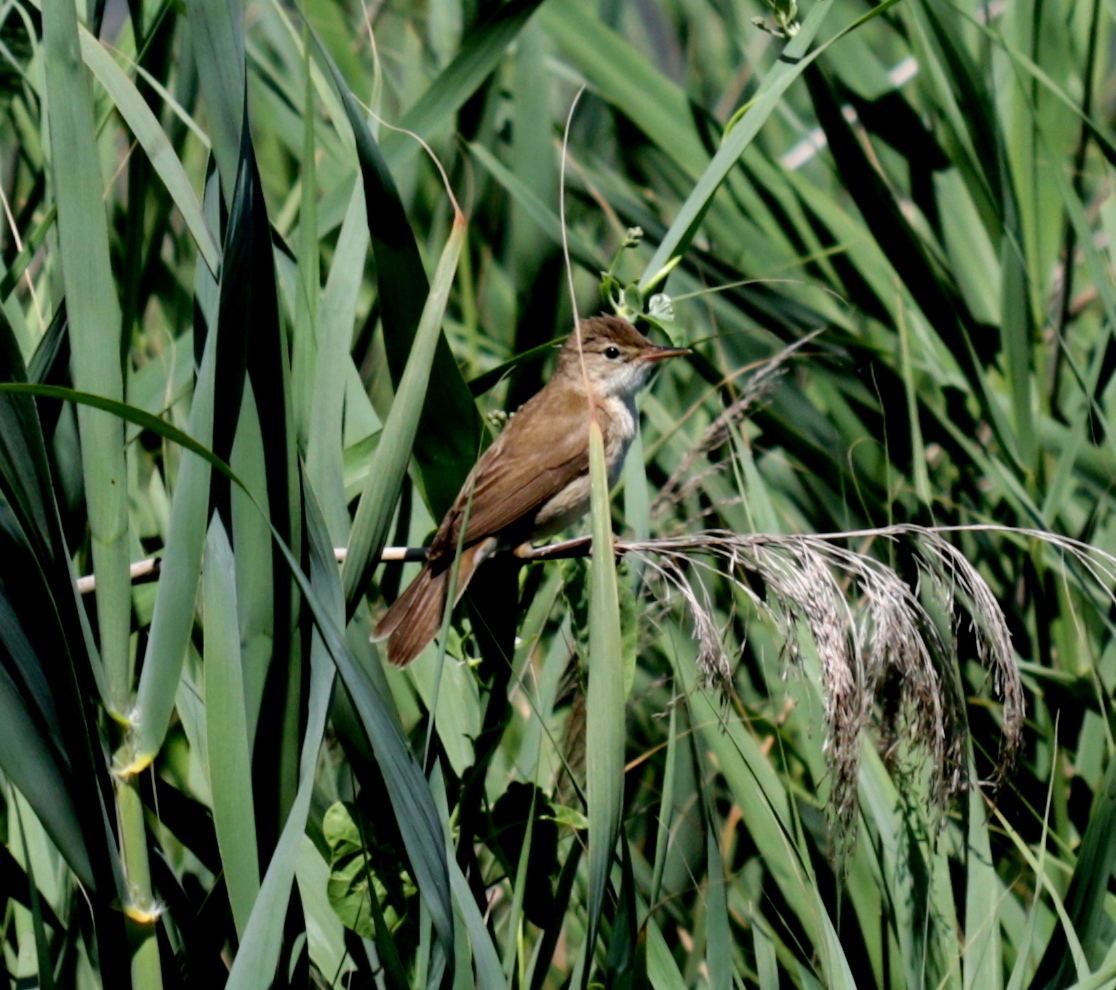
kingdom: Animalia
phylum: Chordata
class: Aves
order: Passeriformes
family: Acrocephalidae
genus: Acrocephalus
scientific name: Acrocephalus scirpaceus
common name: Eurasian reed warbler
